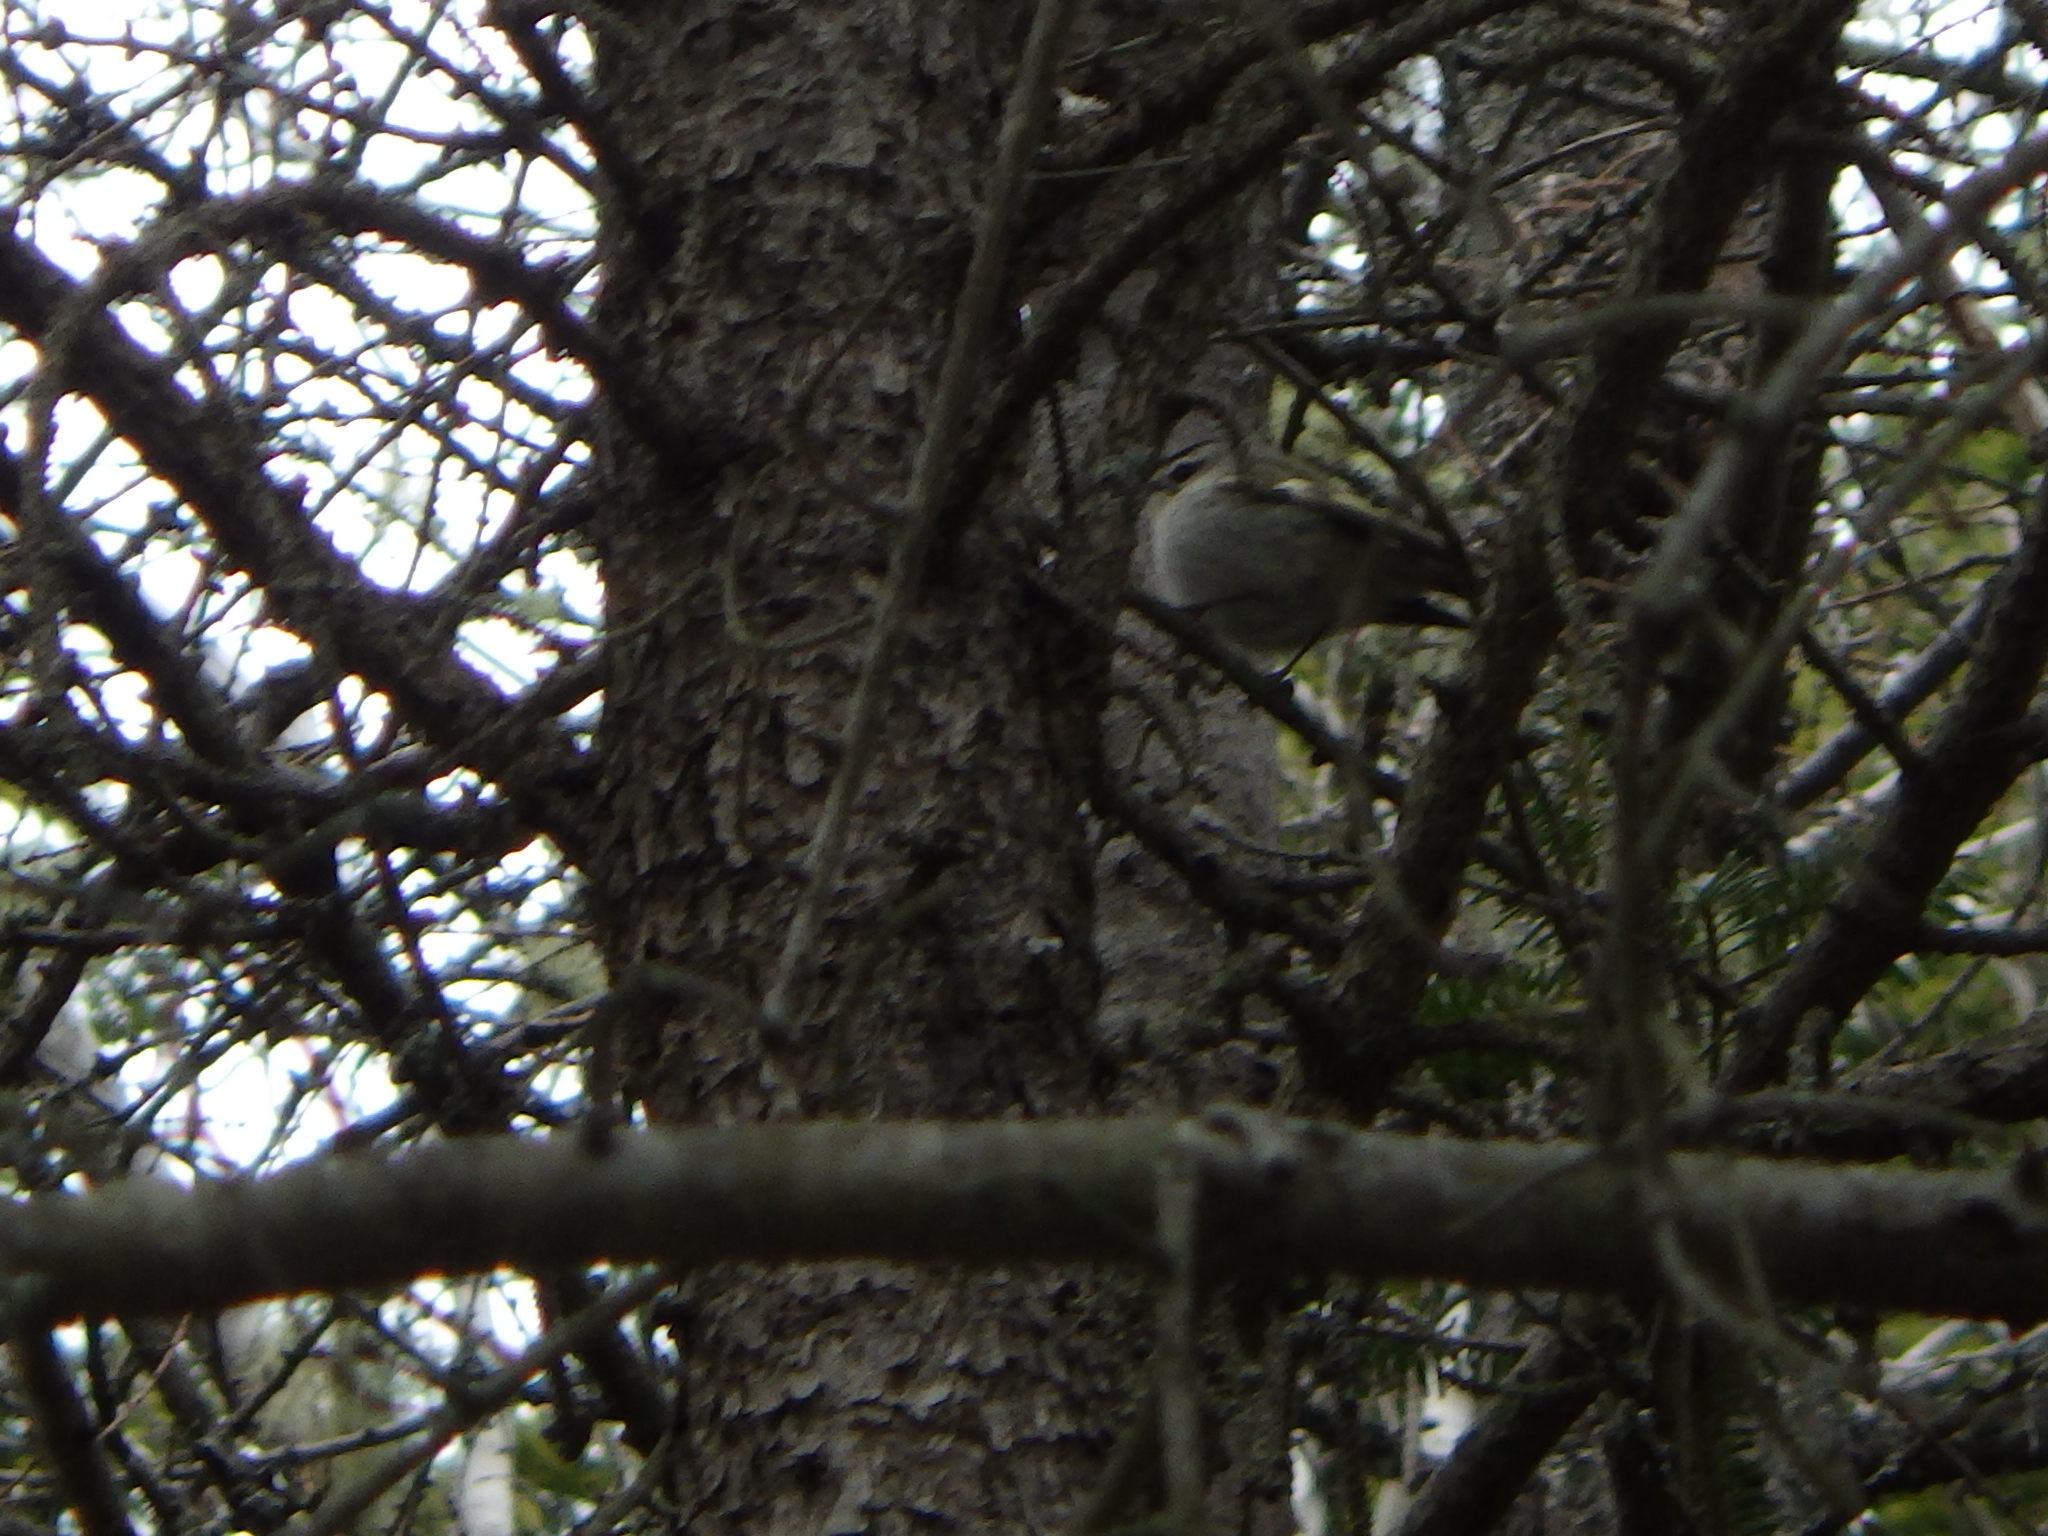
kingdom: Animalia
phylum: Chordata
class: Aves
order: Passeriformes
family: Regulidae
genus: Regulus
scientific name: Regulus satrapa
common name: Golden-crowned kinglet
